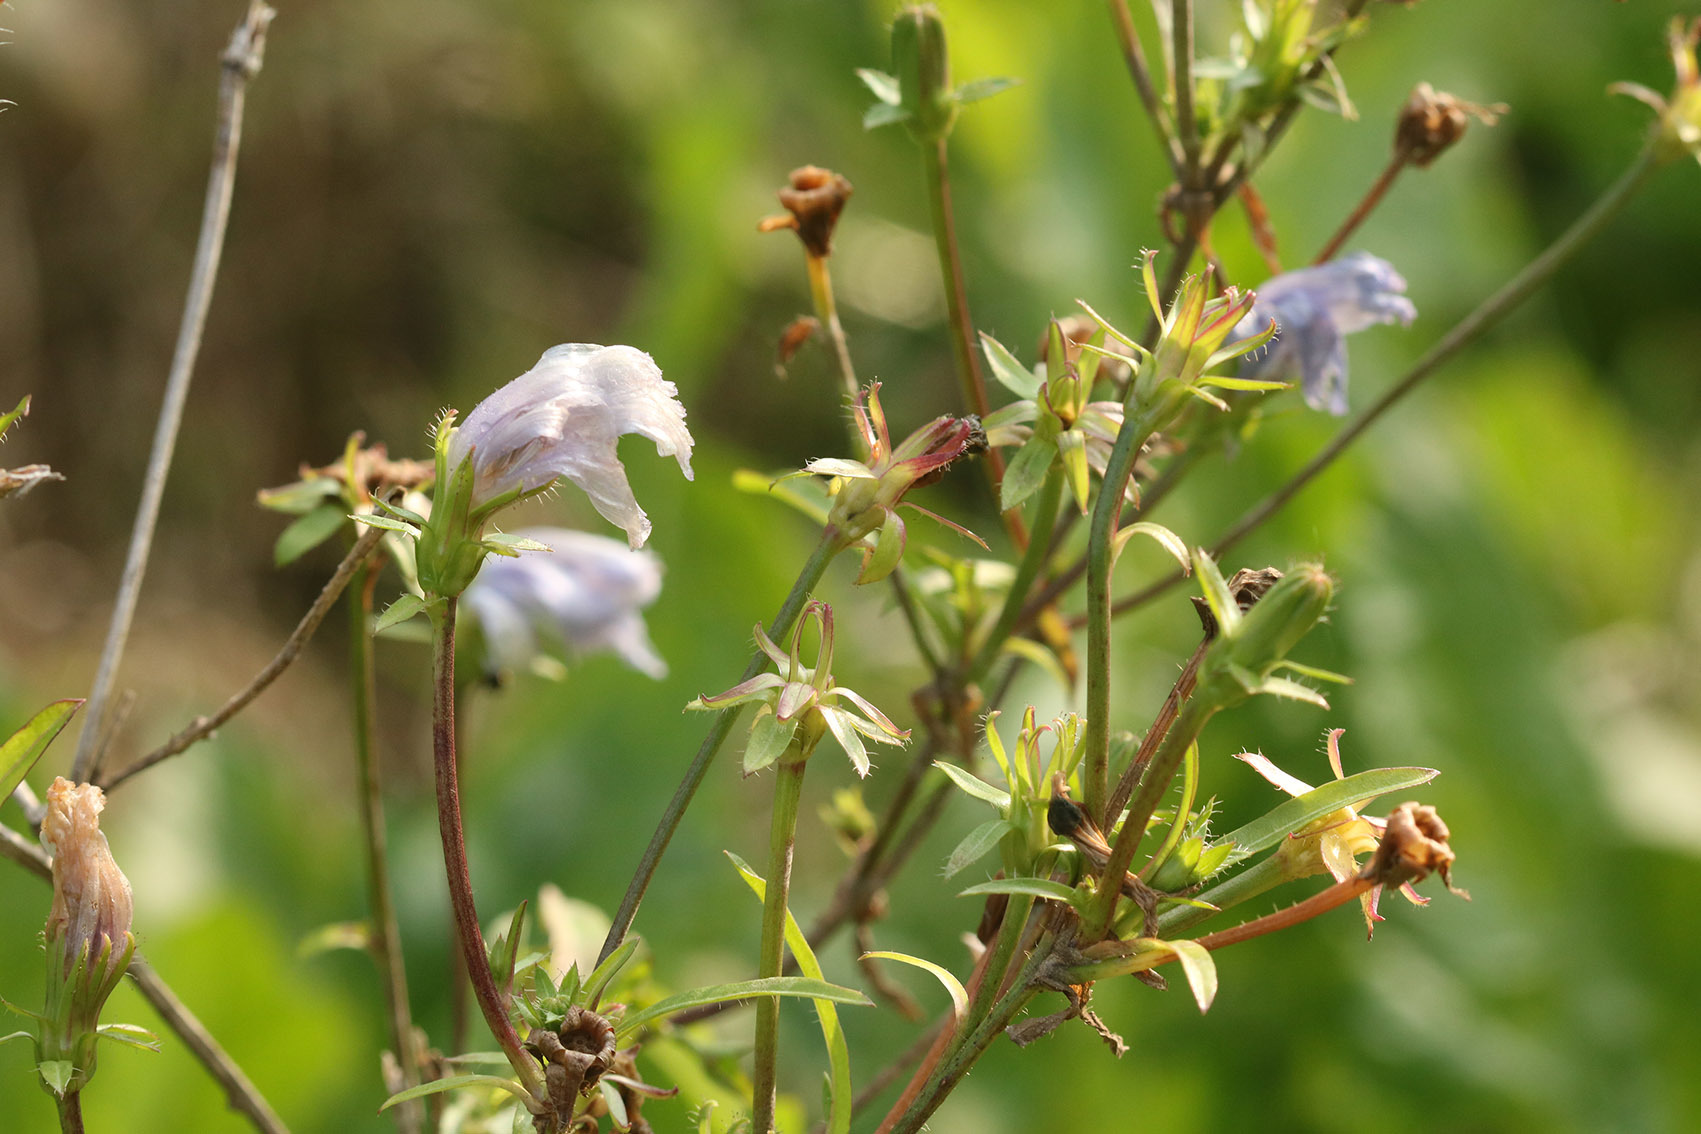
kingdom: Plantae
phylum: Tracheophyta
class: Magnoliopsida
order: Asterales
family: Asteraceae
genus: Cichorium
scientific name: Cichorium intybus
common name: Chicory
